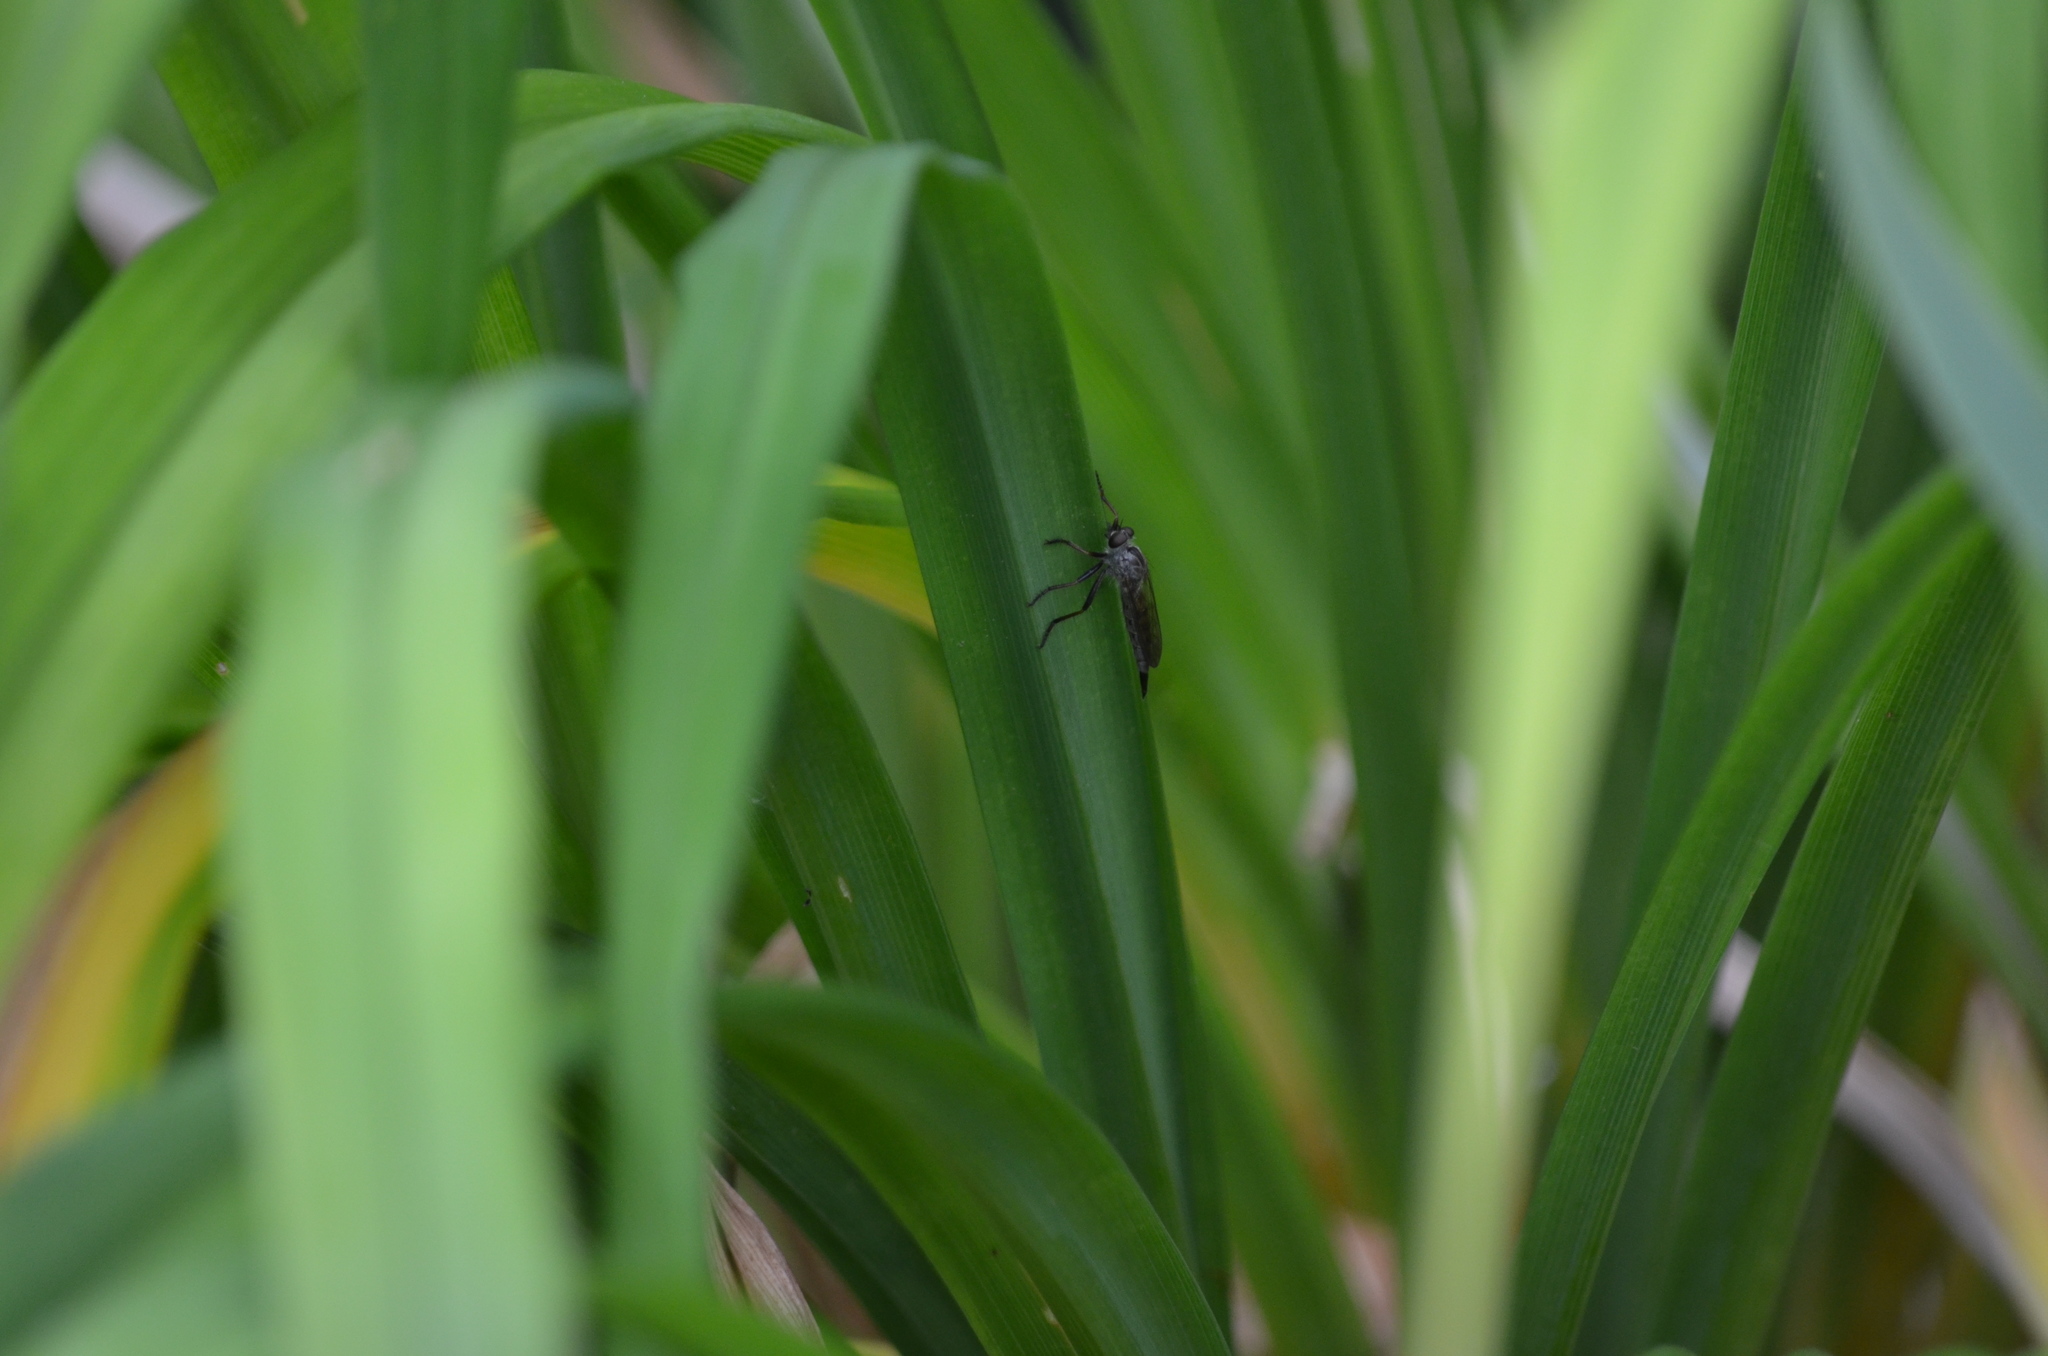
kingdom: Animalia
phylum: Arthropoda
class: Insecta
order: Diptera
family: Asilidae
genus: Neomochtherus
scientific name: Neomochtherus willistoni
